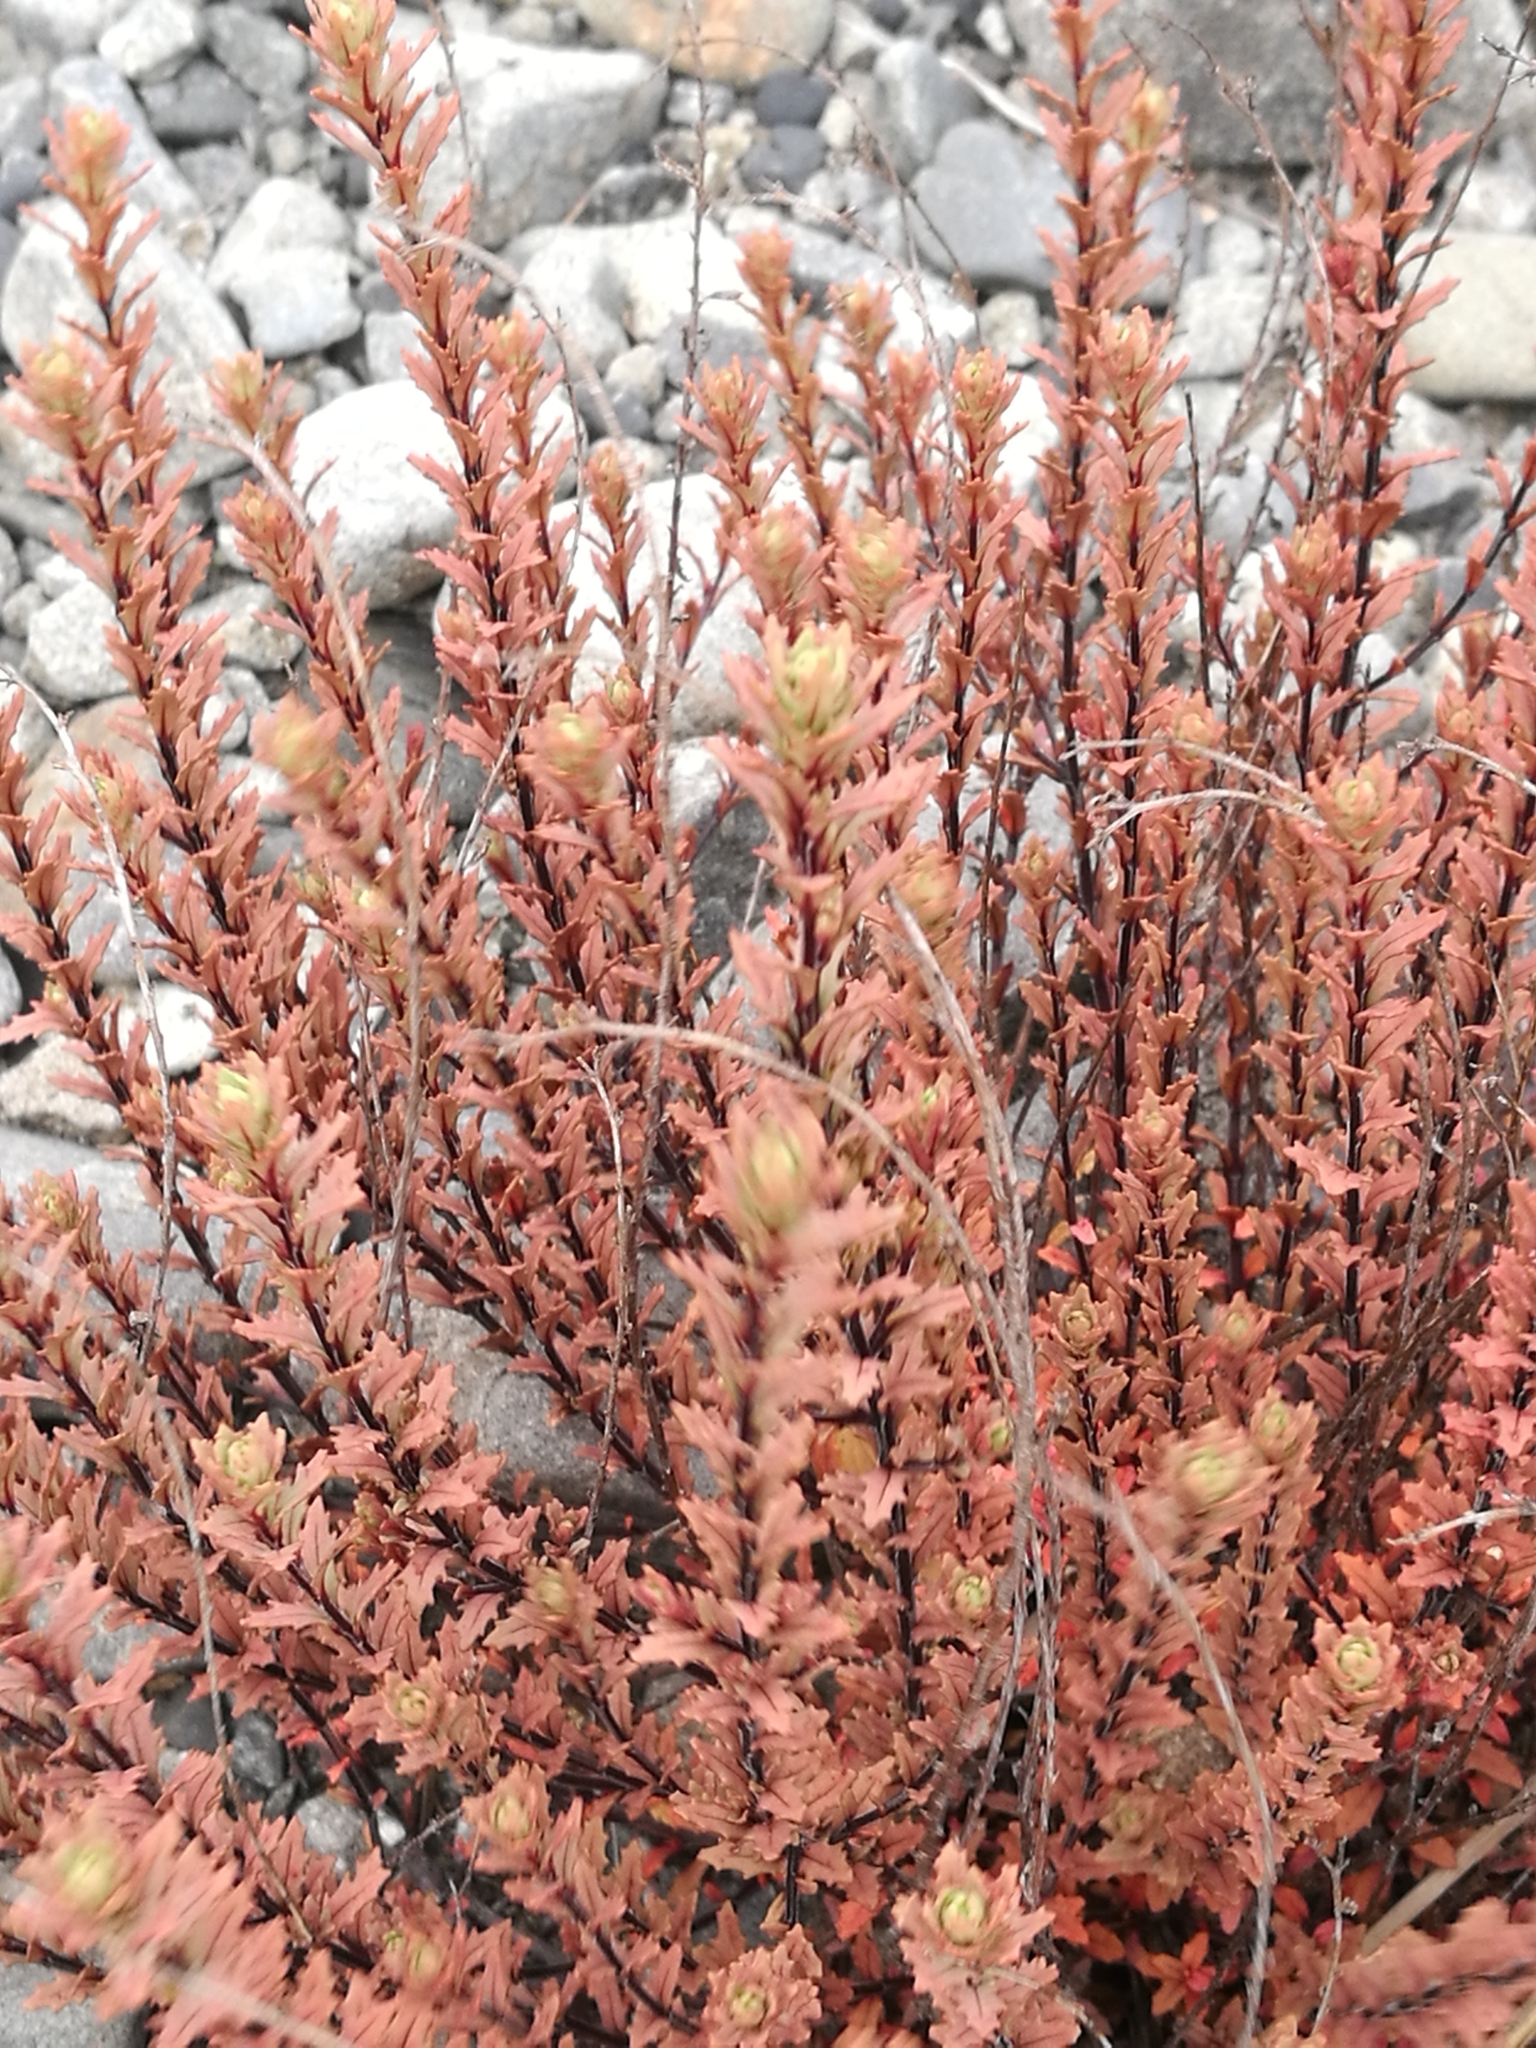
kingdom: Plantae
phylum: Tracheophyta
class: Magnoliopsida
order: Myrtales
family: Onagraceae
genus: Epilobium
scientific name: Epilobium melanocaulon
